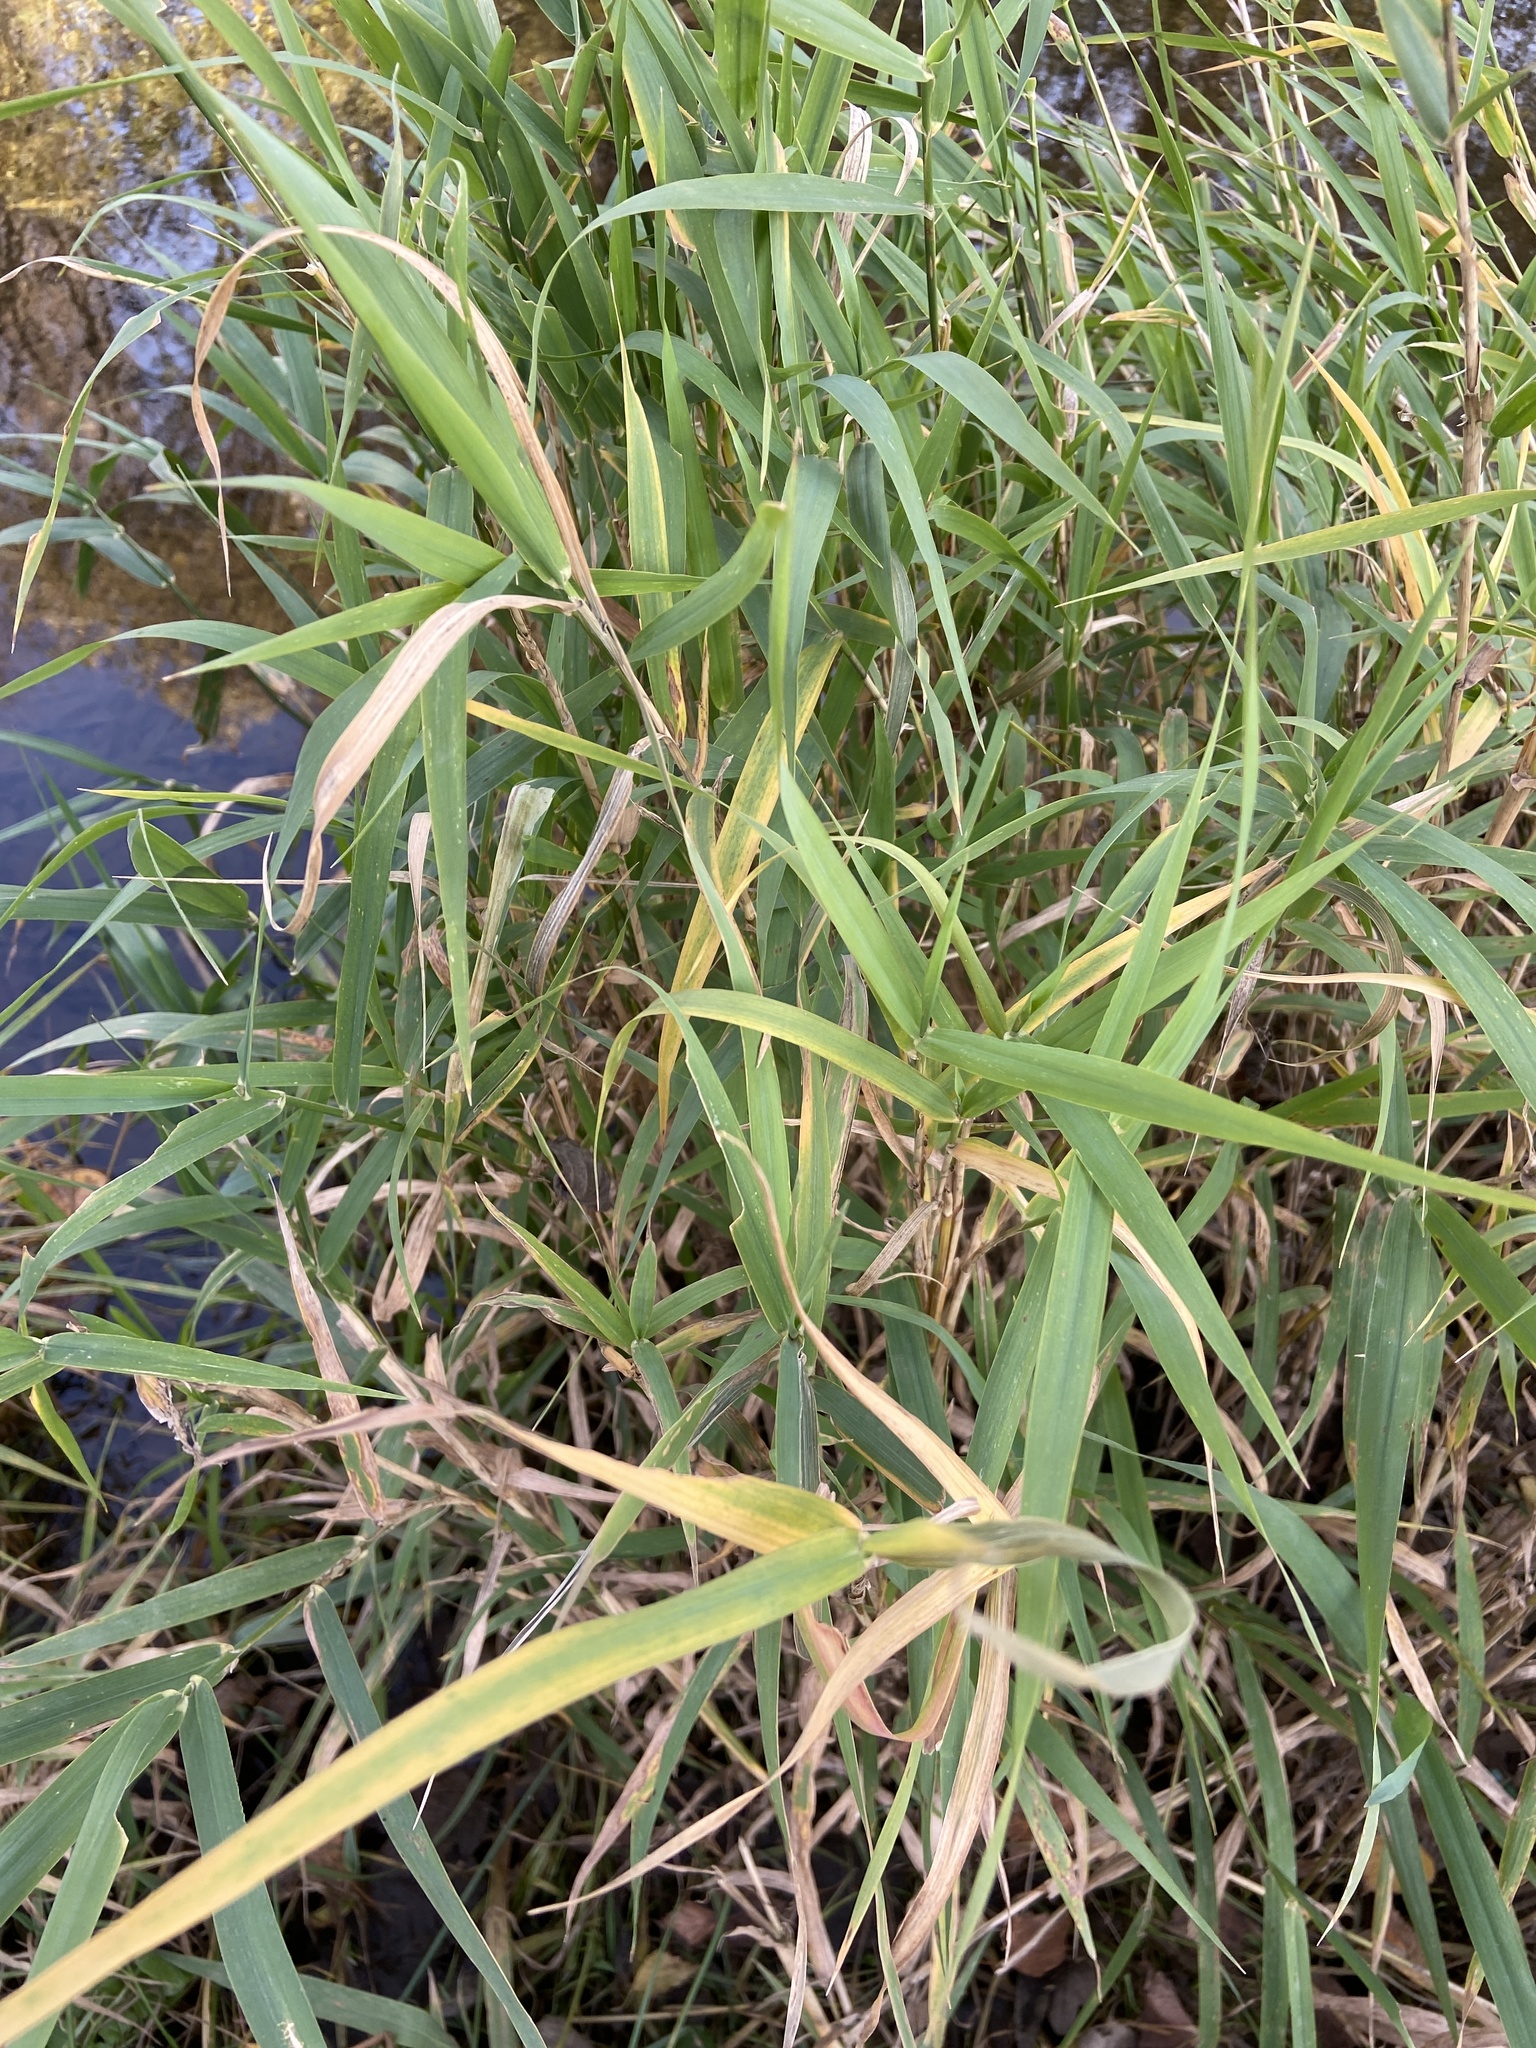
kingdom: Plantae
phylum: Tracheophyta
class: Liliopsida
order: Poales
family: Poaceae
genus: Phalaris
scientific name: Phalaris arundinacea
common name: Reed canary-grass
